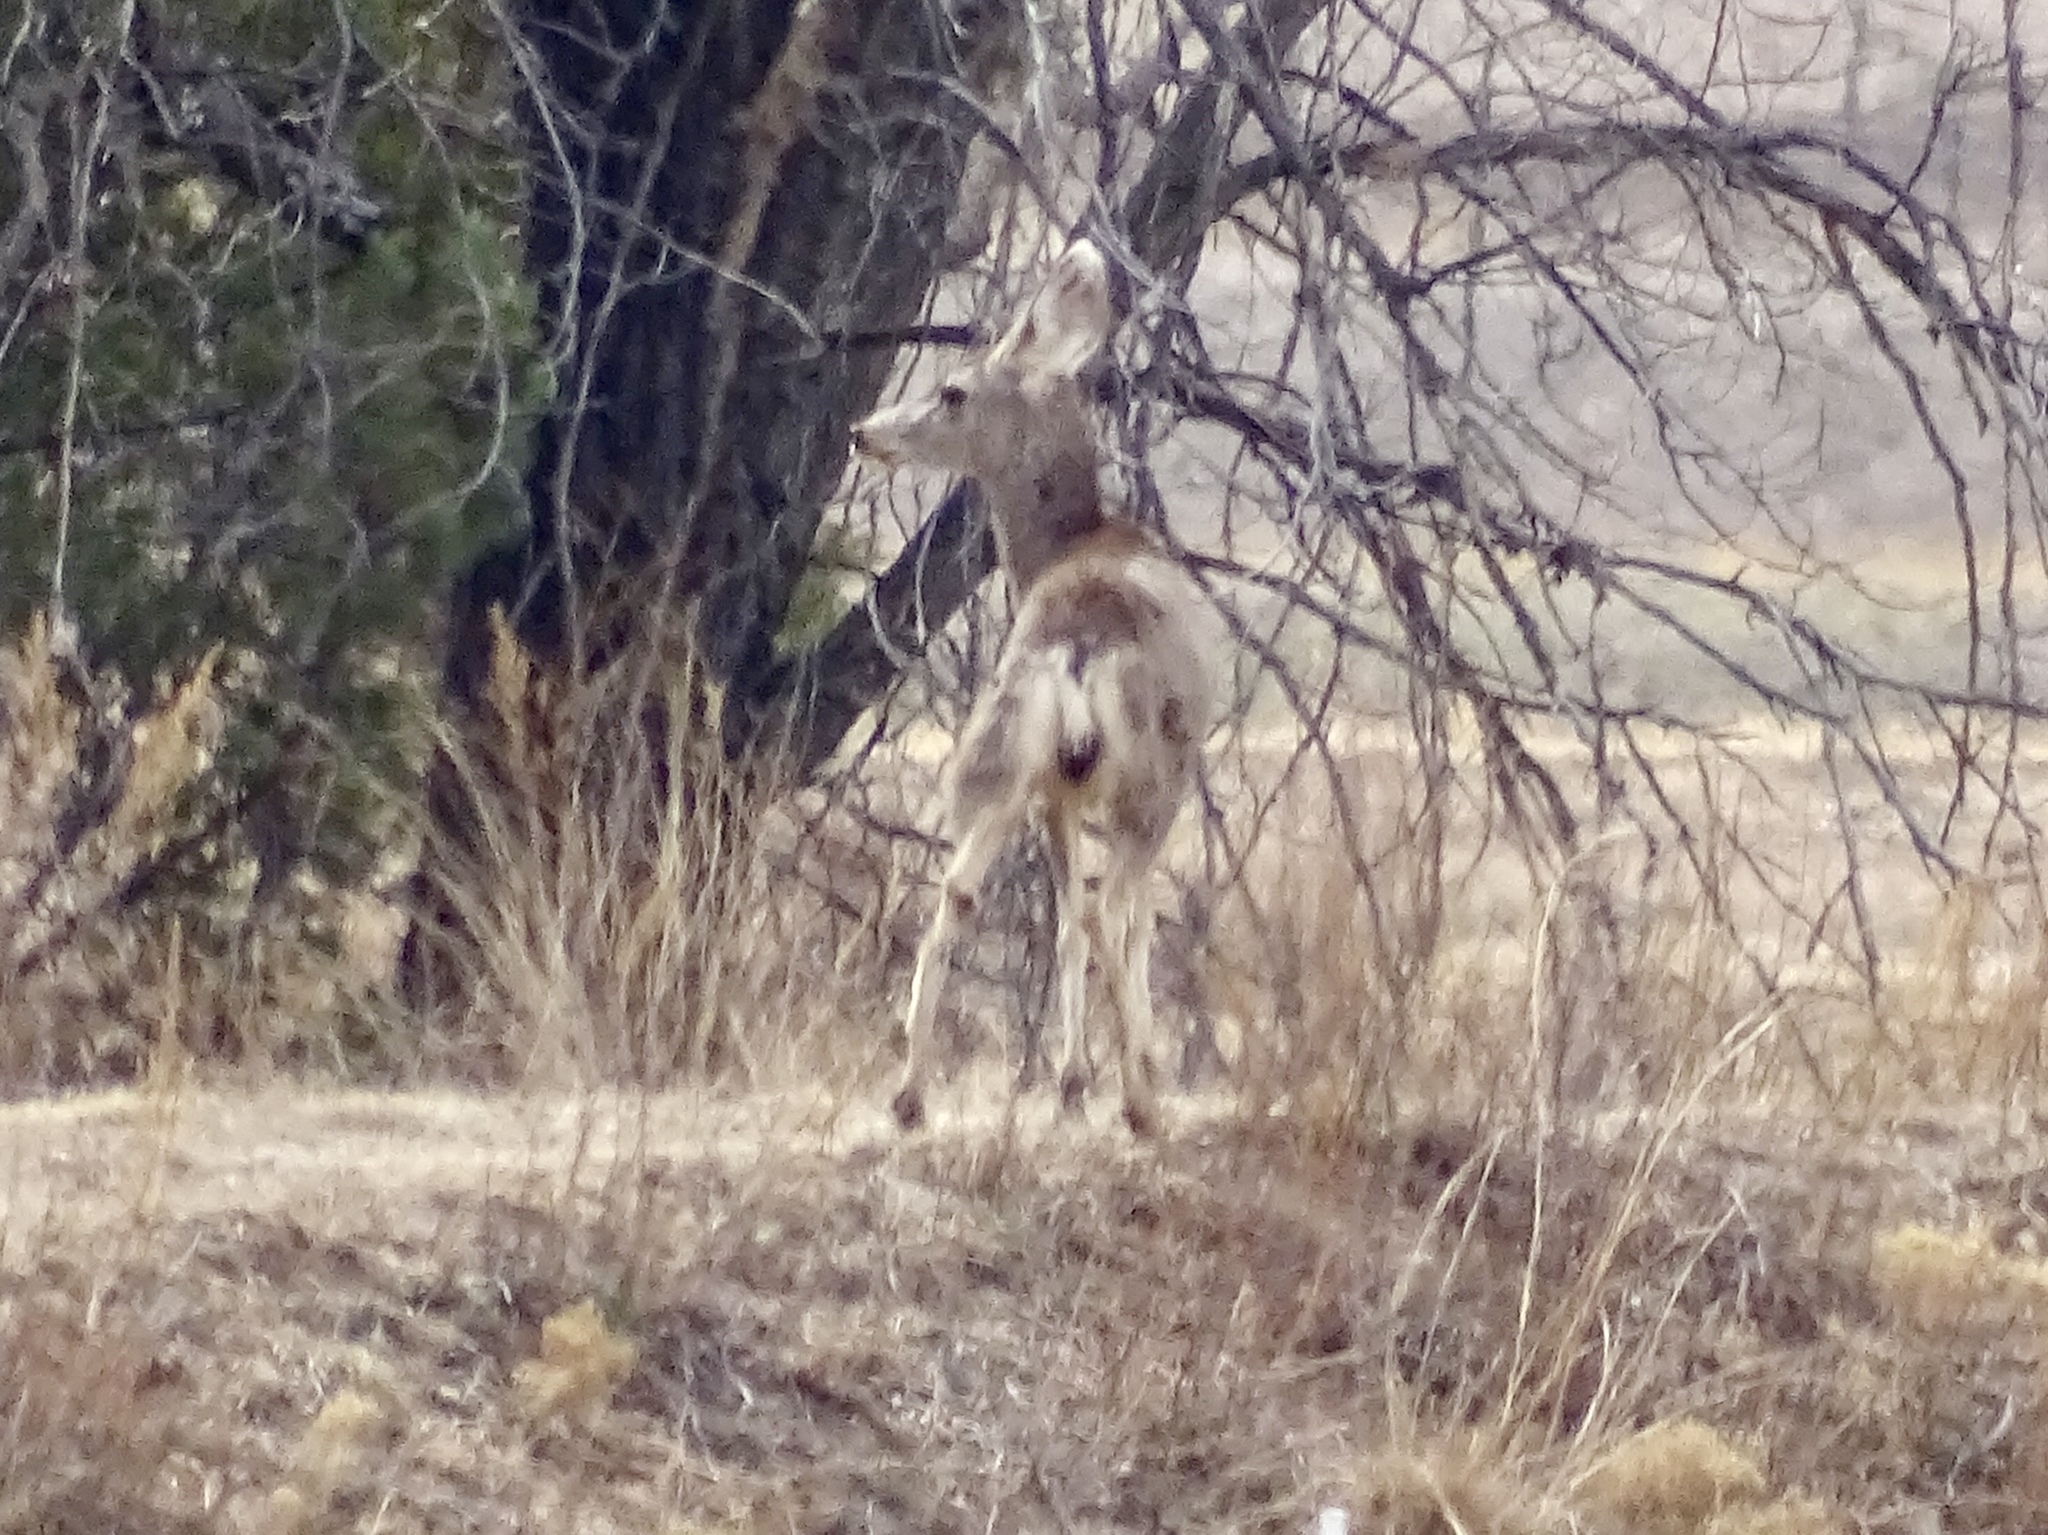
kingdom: Animalia
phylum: Chordata
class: Mammalia
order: Artiodactyla
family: Cervidae
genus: Odocoileus
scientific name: Odocoileus hemionus
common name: Mule deer
